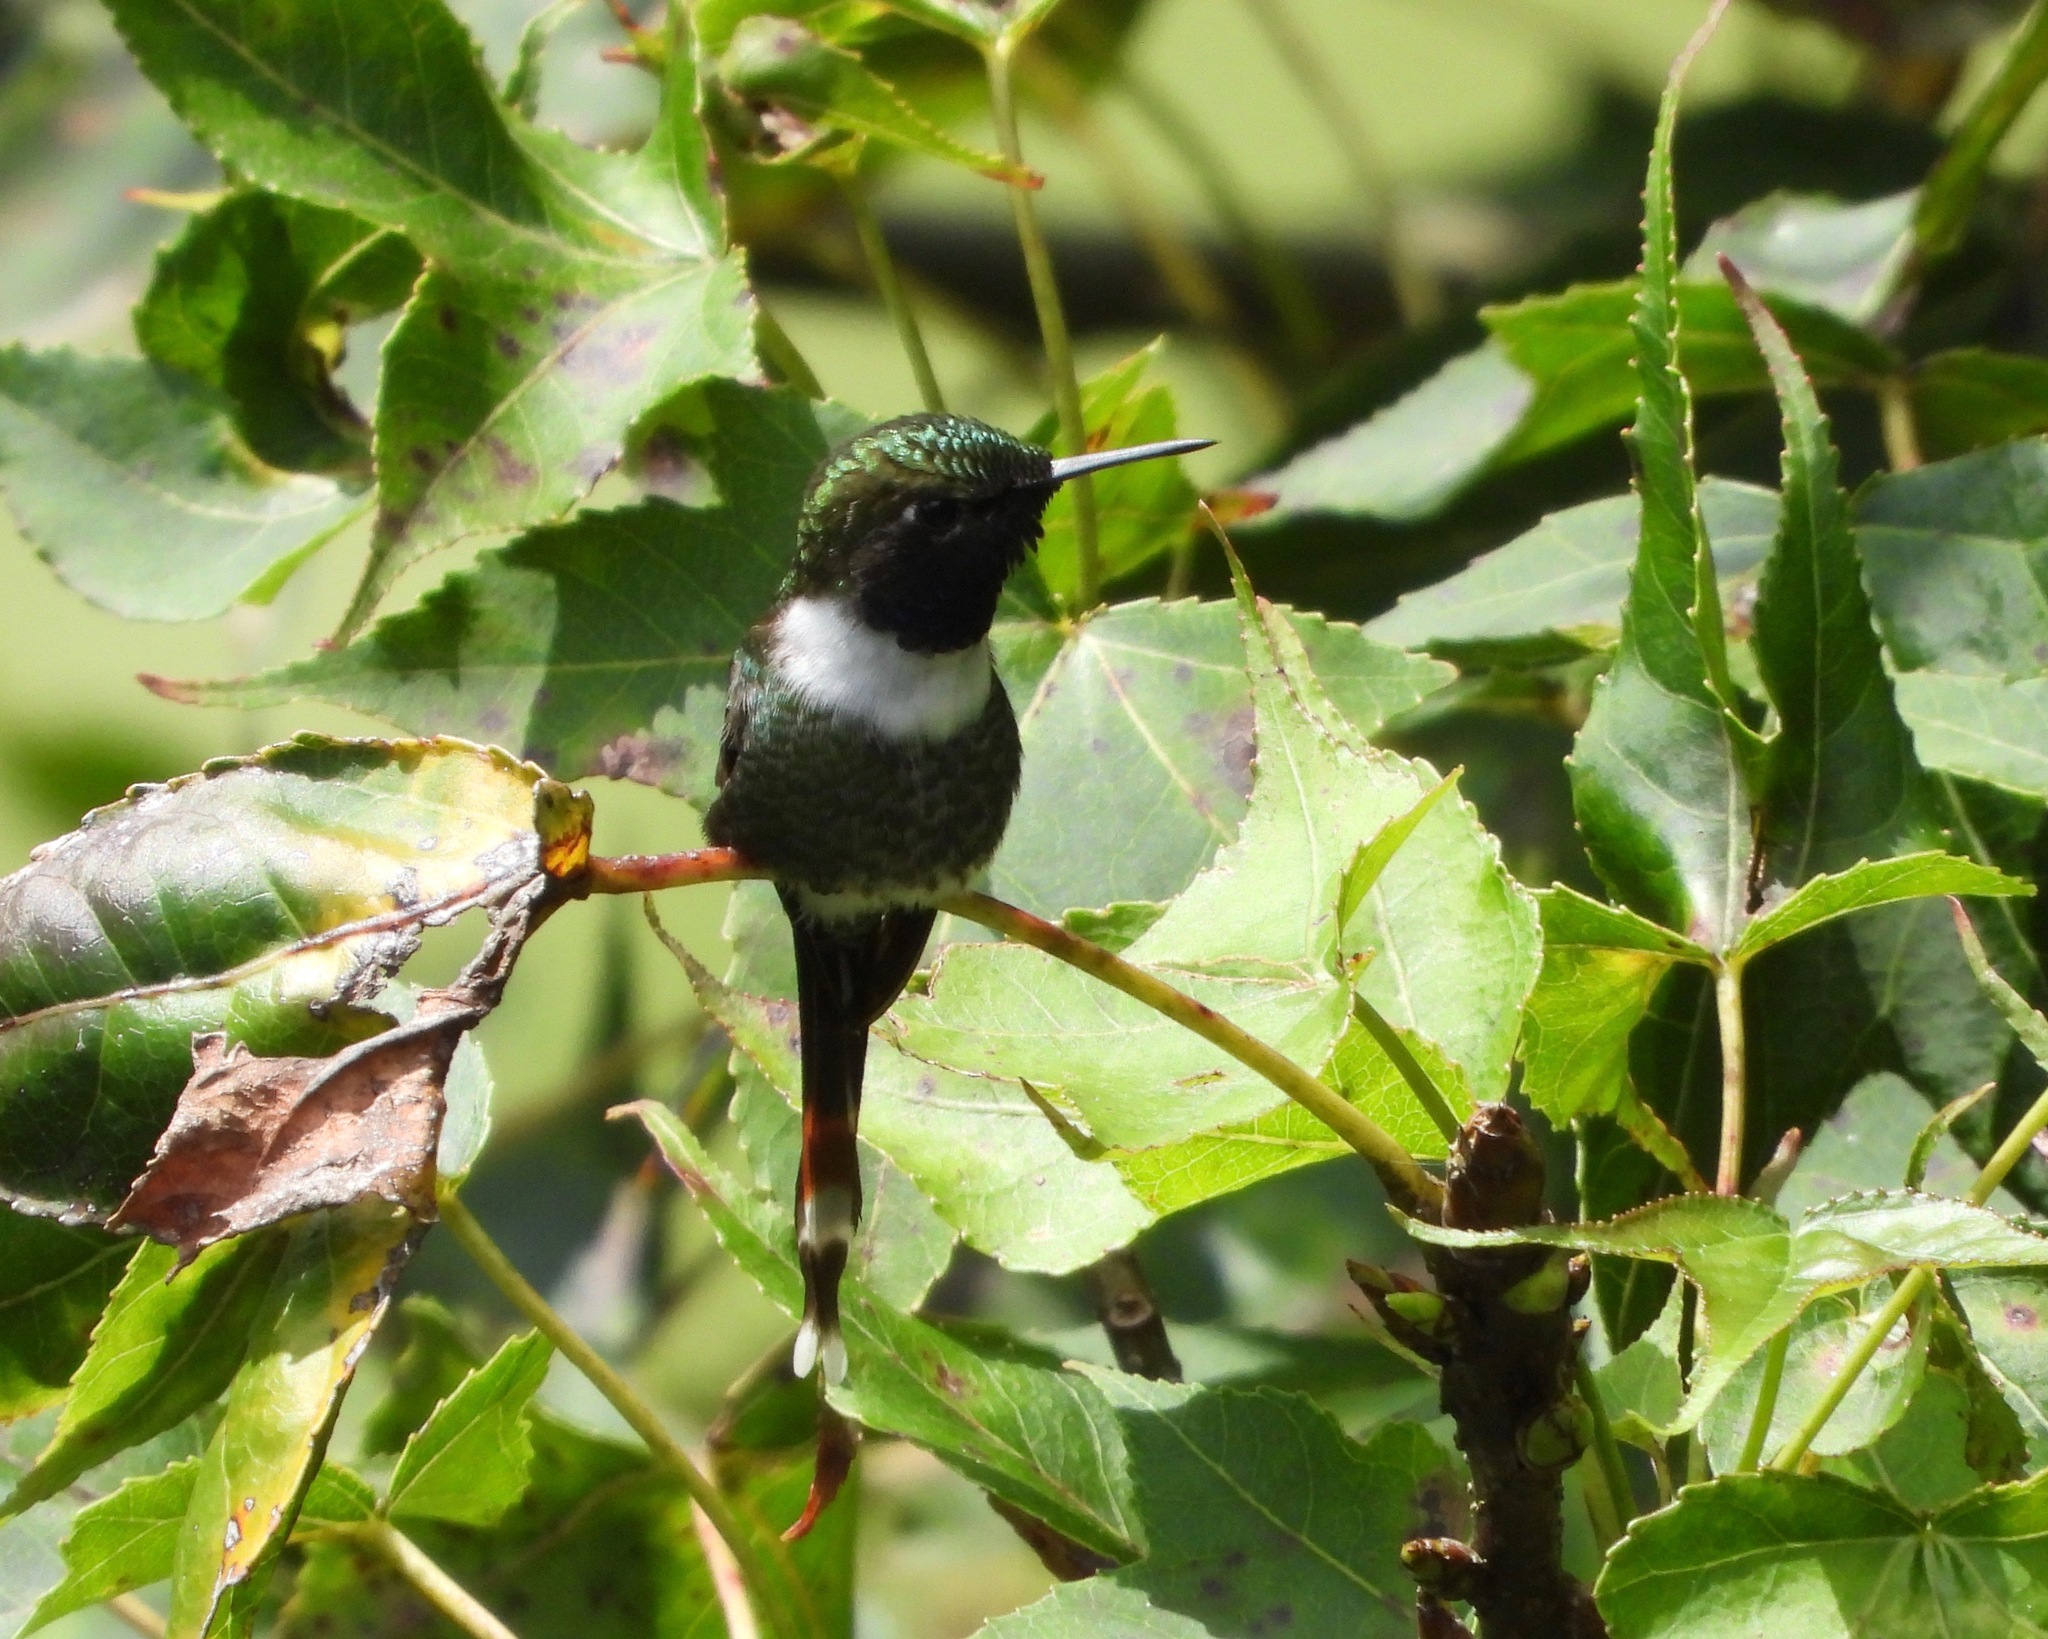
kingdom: Animalia
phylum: Chordata
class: Aves
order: Apodiformes
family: Trochilidae
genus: Tilmatura
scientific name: Tilmatura dupontii
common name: Sparkling-tailed woodstar
